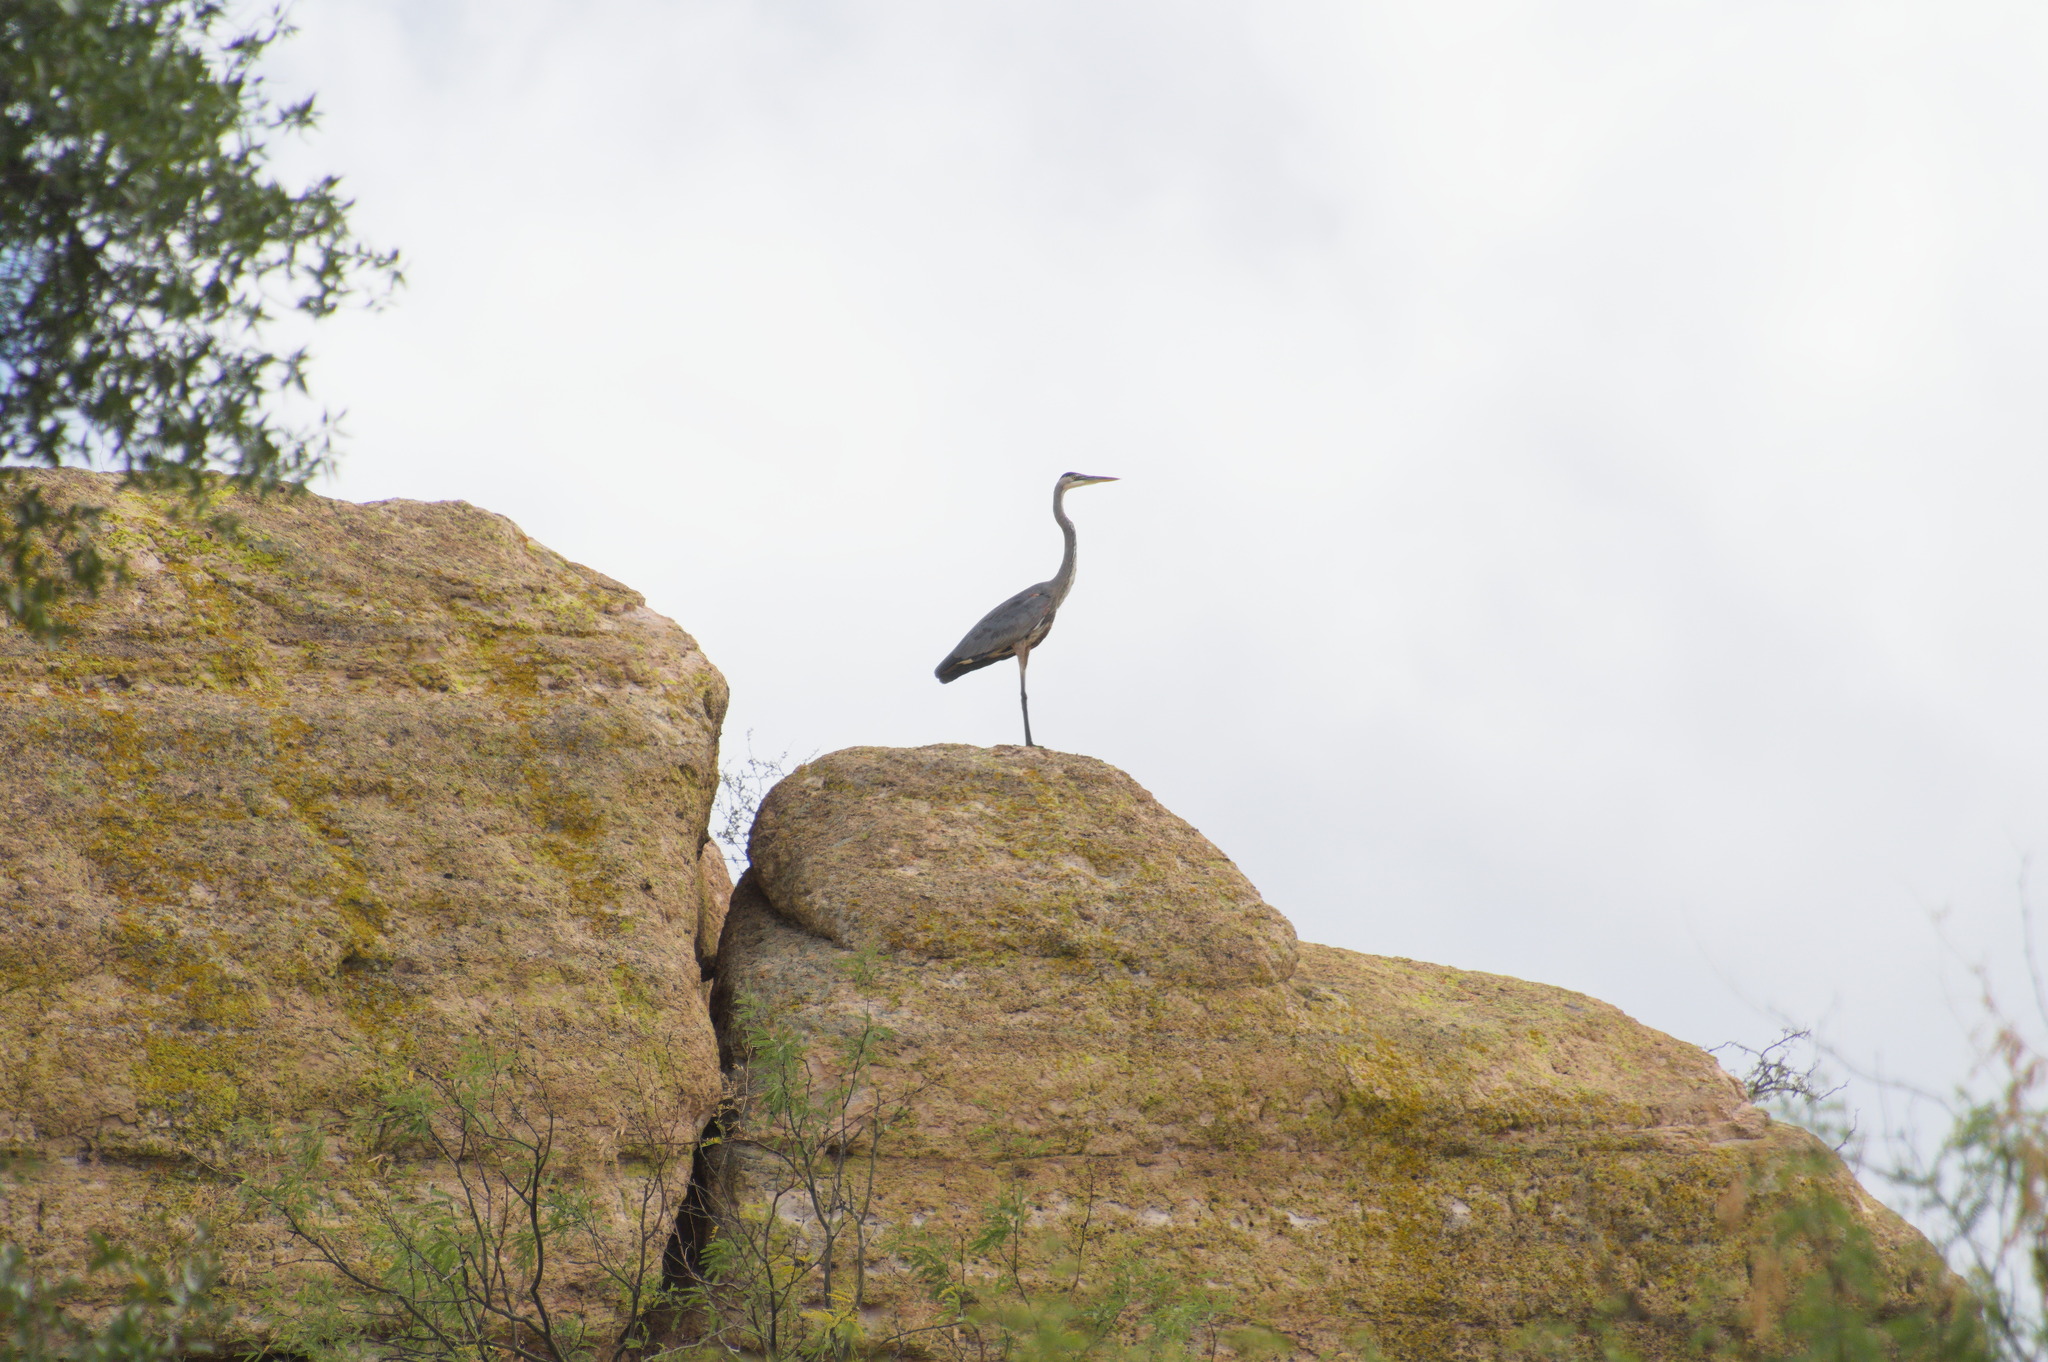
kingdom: Animalia
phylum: Chordata
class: Aves
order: Pelecaniformes
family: Ardeidae
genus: Ardea
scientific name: Ardea herodias
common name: Great blue heron
